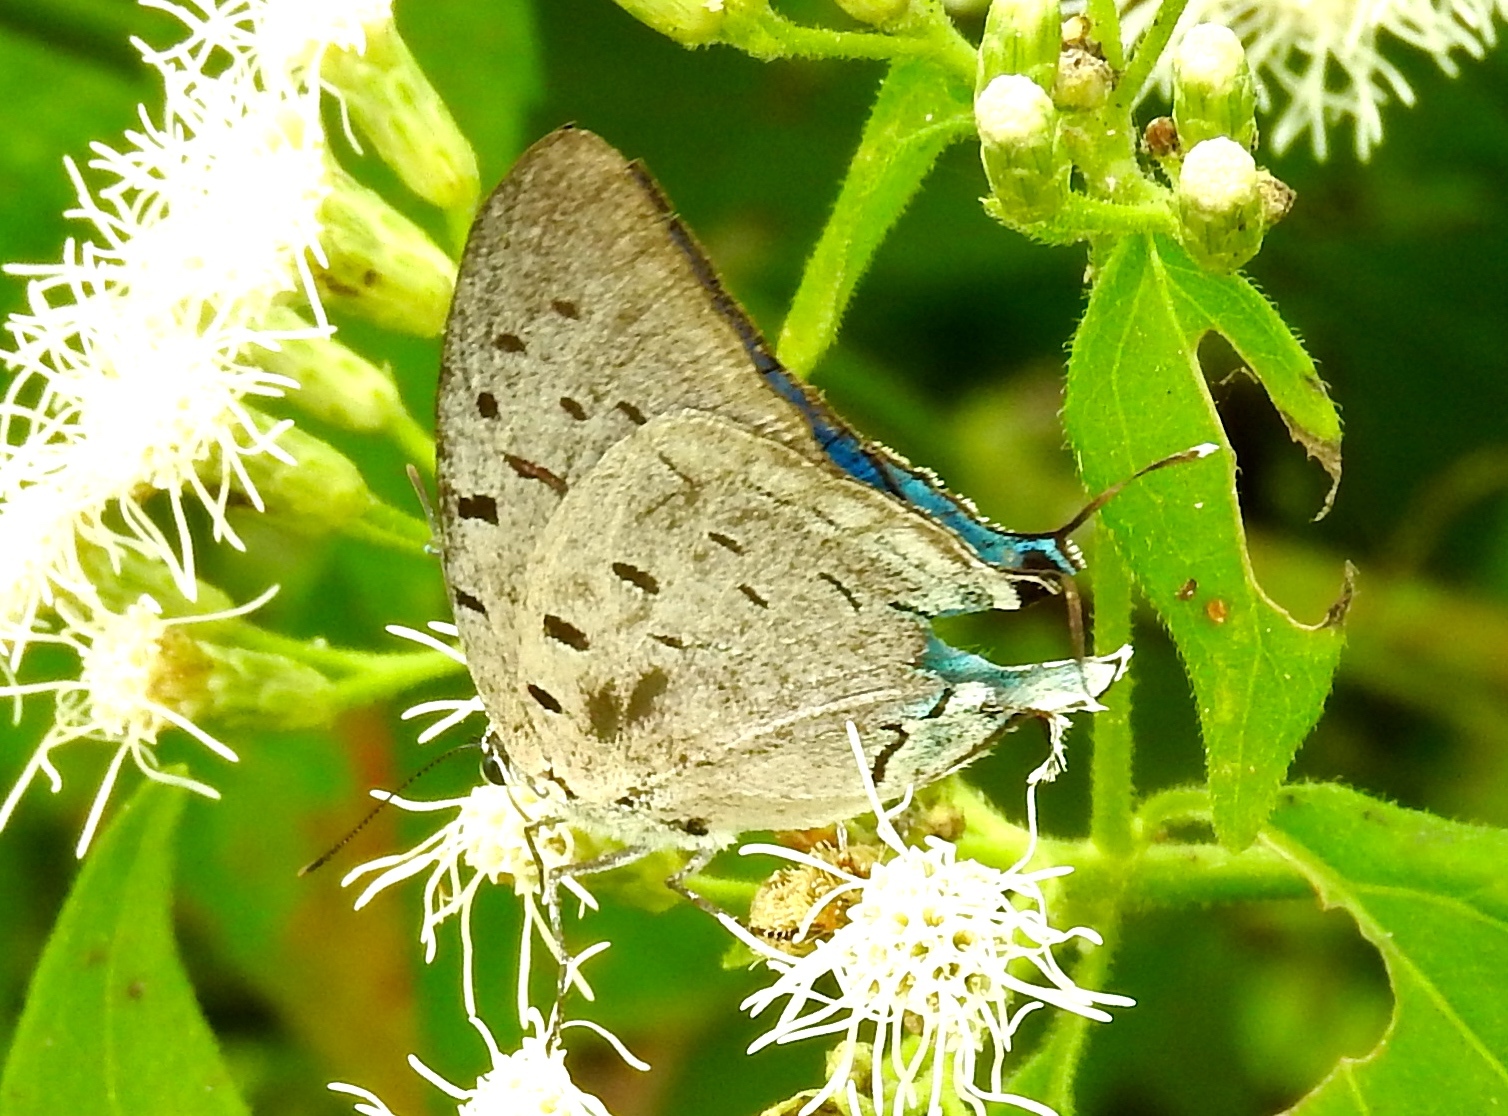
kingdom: Animalia
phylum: Arthropoda
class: Insecta
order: Lepidoptera
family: Lycaenidae
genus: Pseudolycaena
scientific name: Pseudolycaena damo
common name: Sky-blue hairstreak
